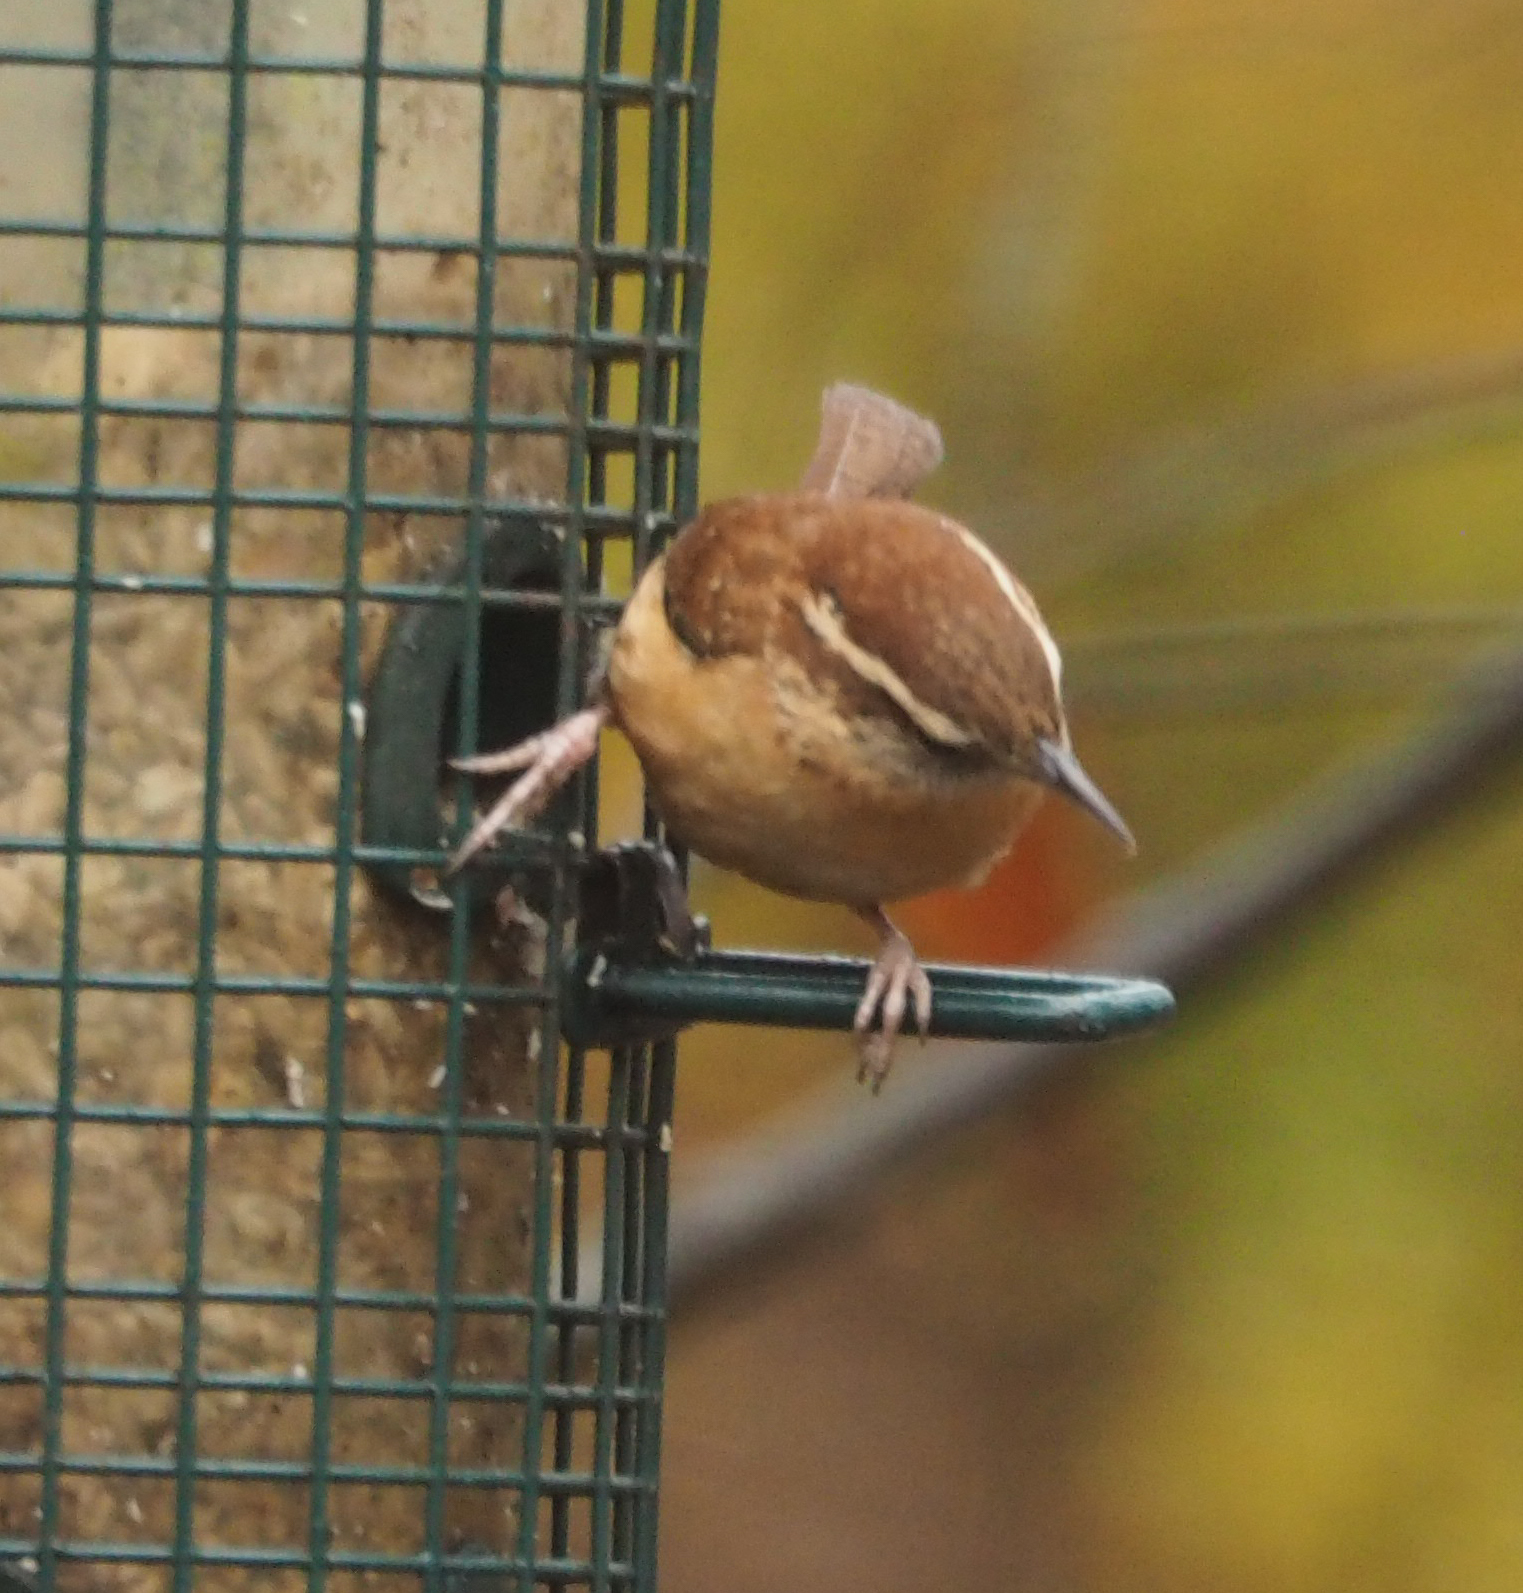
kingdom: Animalia
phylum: Chordata
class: Aves
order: Passeriformes
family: Troglodytidae
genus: Thryothorus
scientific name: Thryothorus ludovicianus
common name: Carolina wren
